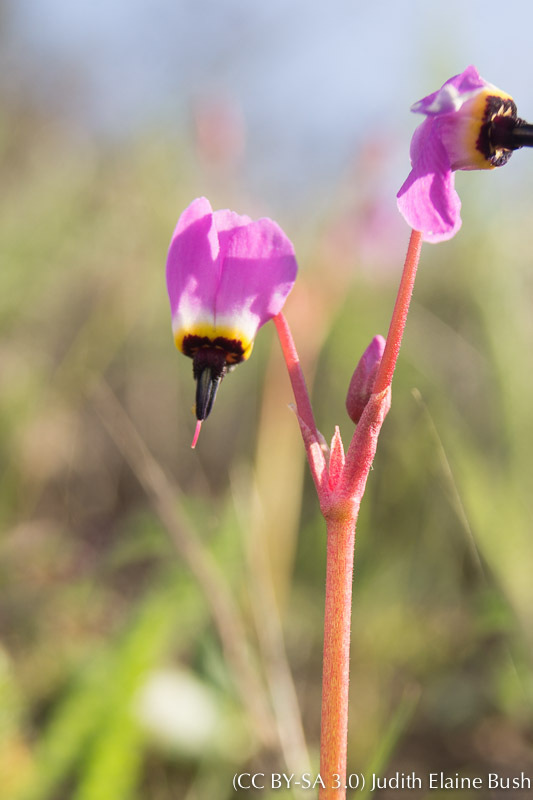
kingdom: Plantae
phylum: Tracheophyta
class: Magnoliopsida
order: Ericales
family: Primulaceae
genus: Dodecatheon
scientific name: Dodecatheon hendersonii
